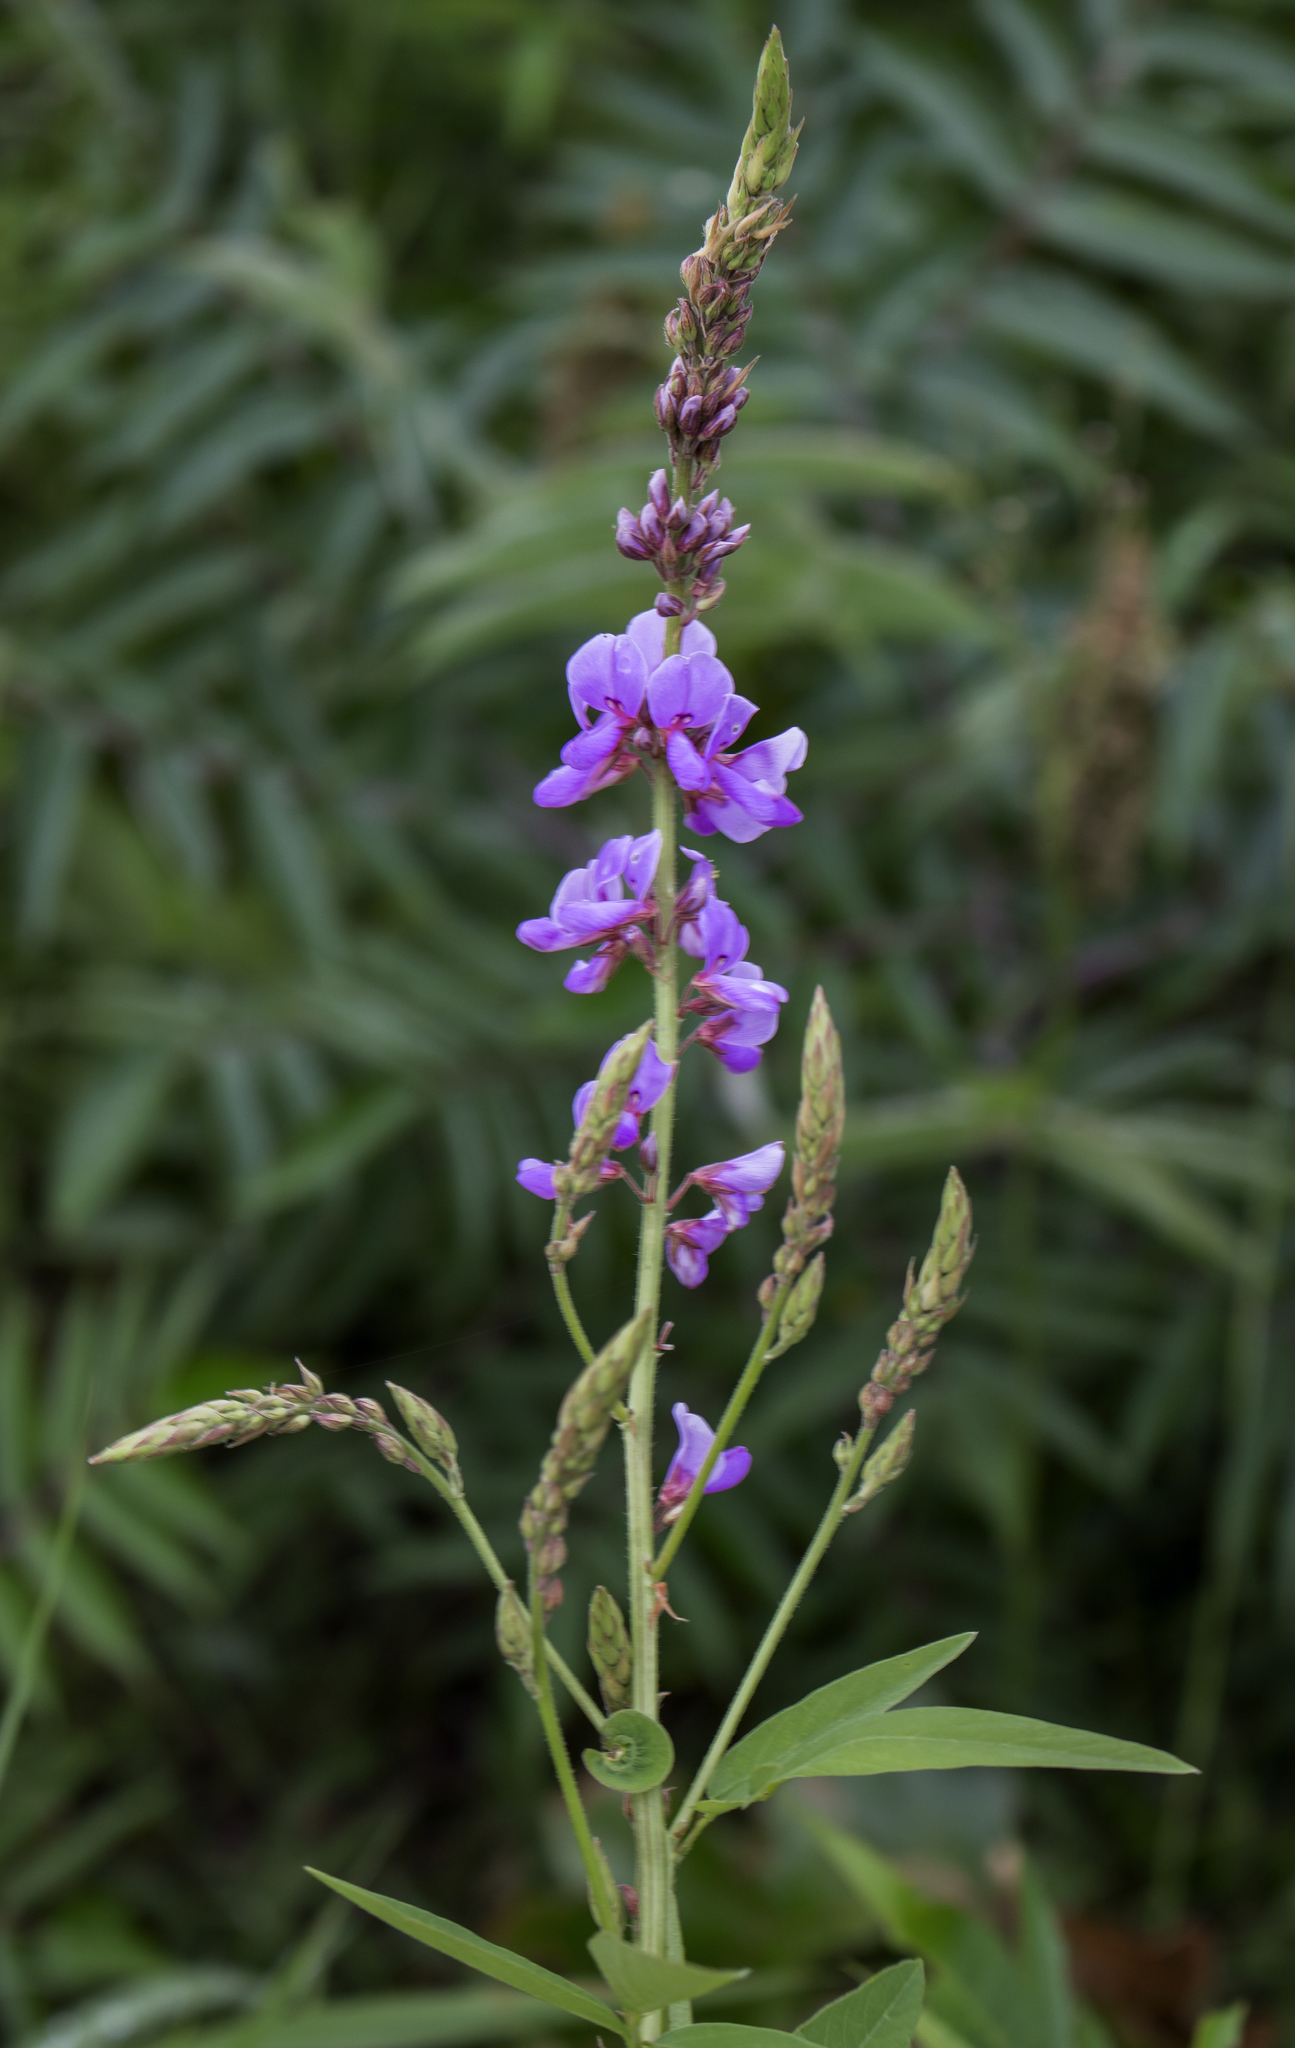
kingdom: Plantae
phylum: Tracheophyta
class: Magnoliopsida
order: Fabales
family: Fabaceae
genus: Desmodium
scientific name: Desmodium canadense
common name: Canada tick-trefoil
